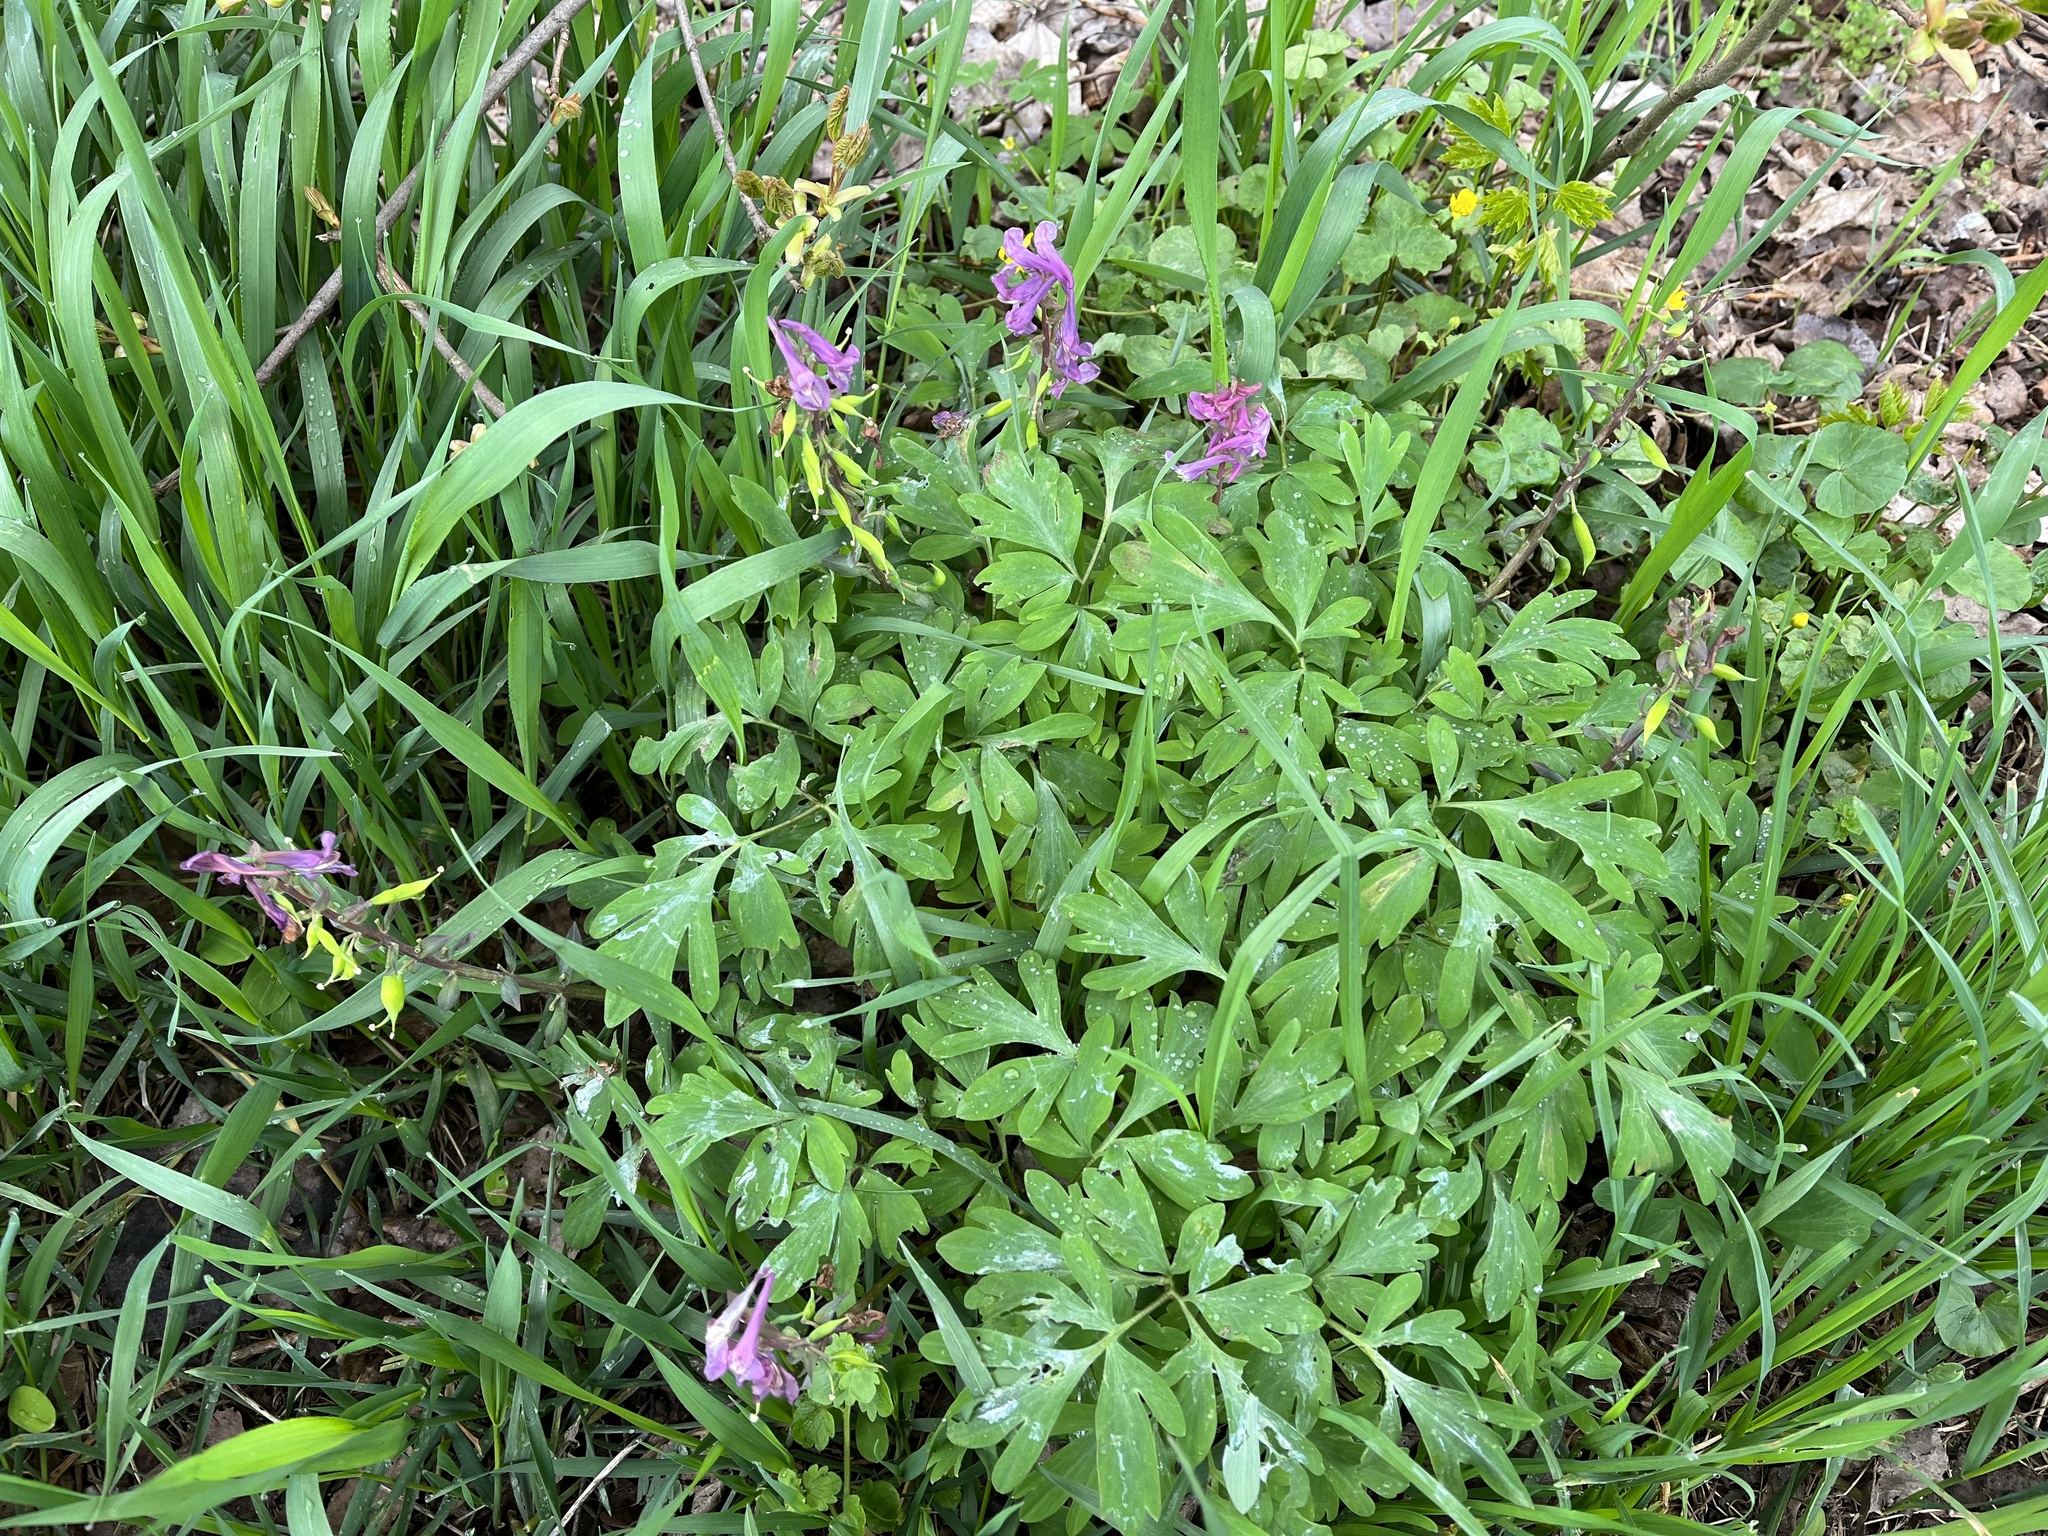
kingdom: Plantae
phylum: Tracheophyta
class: Magnoliopsida
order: Ranunculales
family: Papaveraceae
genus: Corydalis
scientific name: Corydalis cava
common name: Hollowroot
